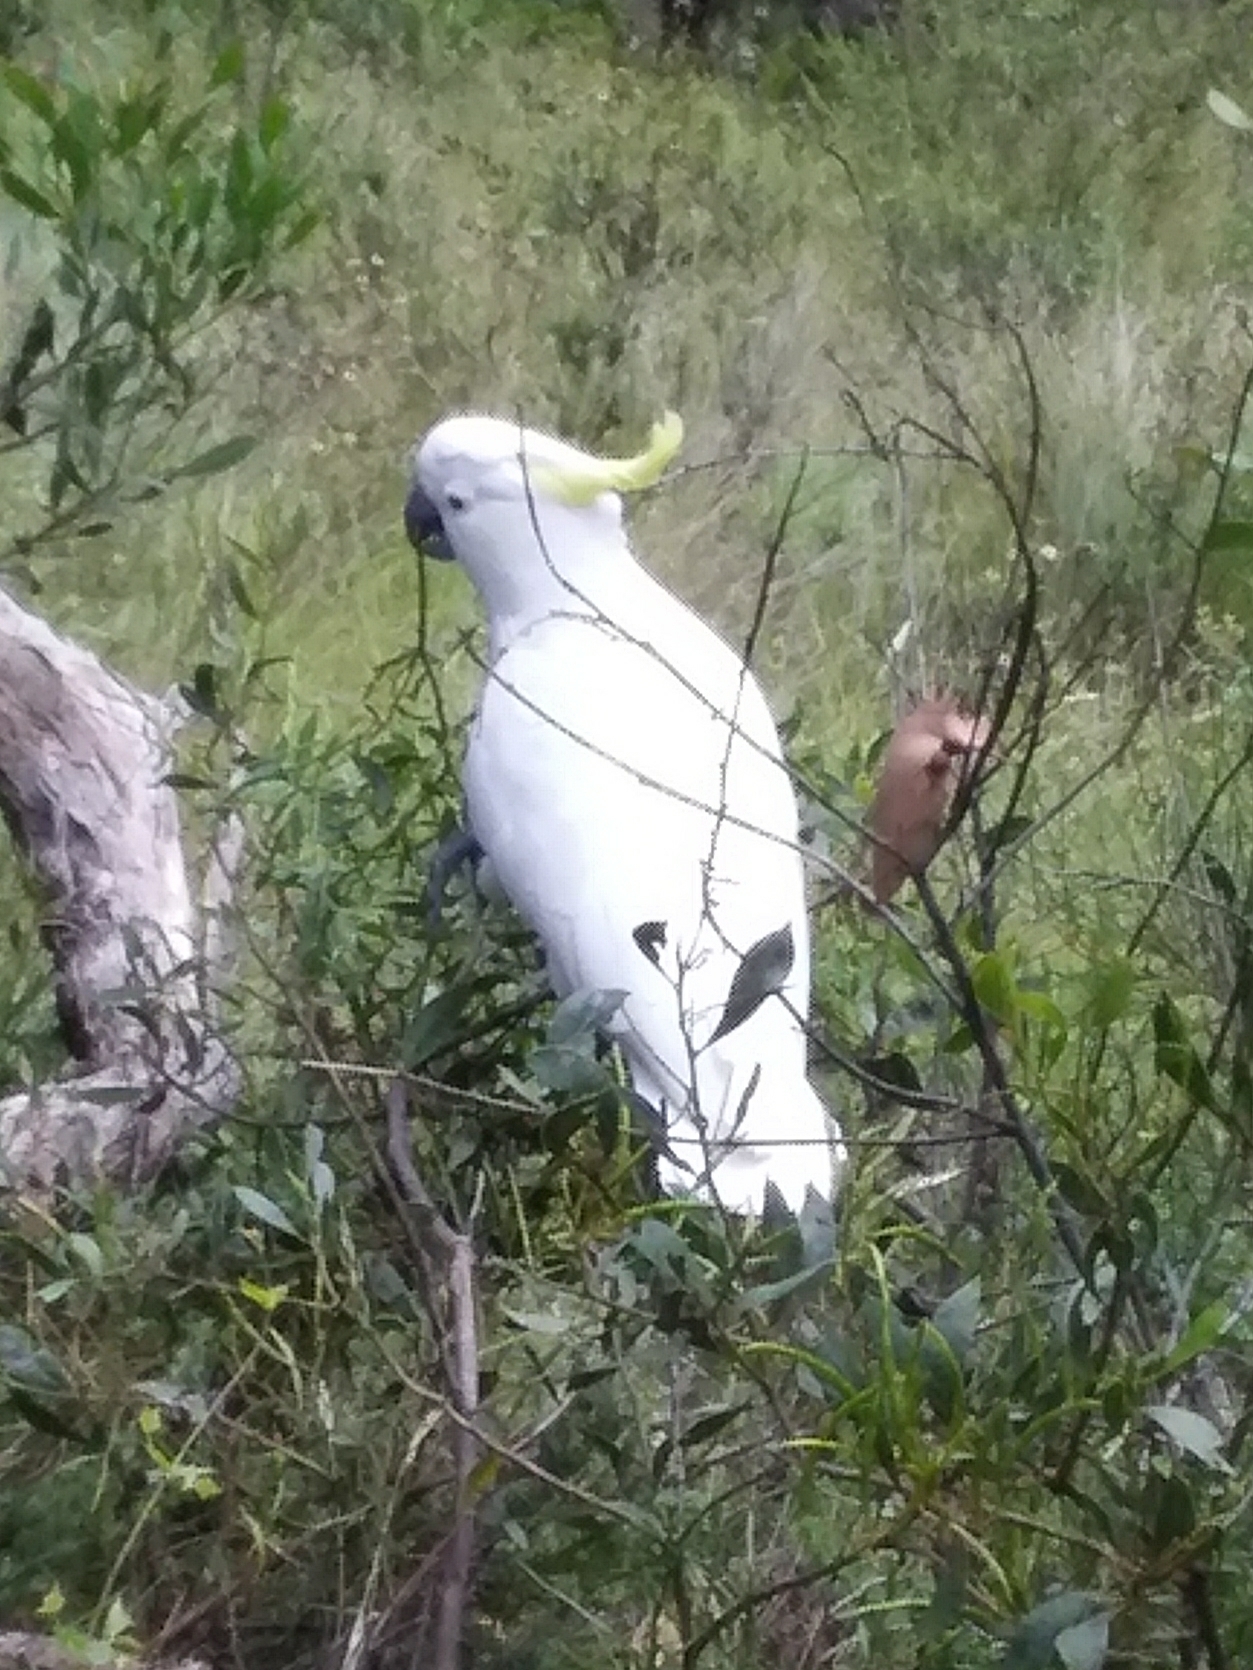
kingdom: Animalia
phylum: Chordata
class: Aves
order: Psittaciformes
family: Psittacidae
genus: Cacatua
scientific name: Cacatua galerita
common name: Sulphur-crested cockatoo
